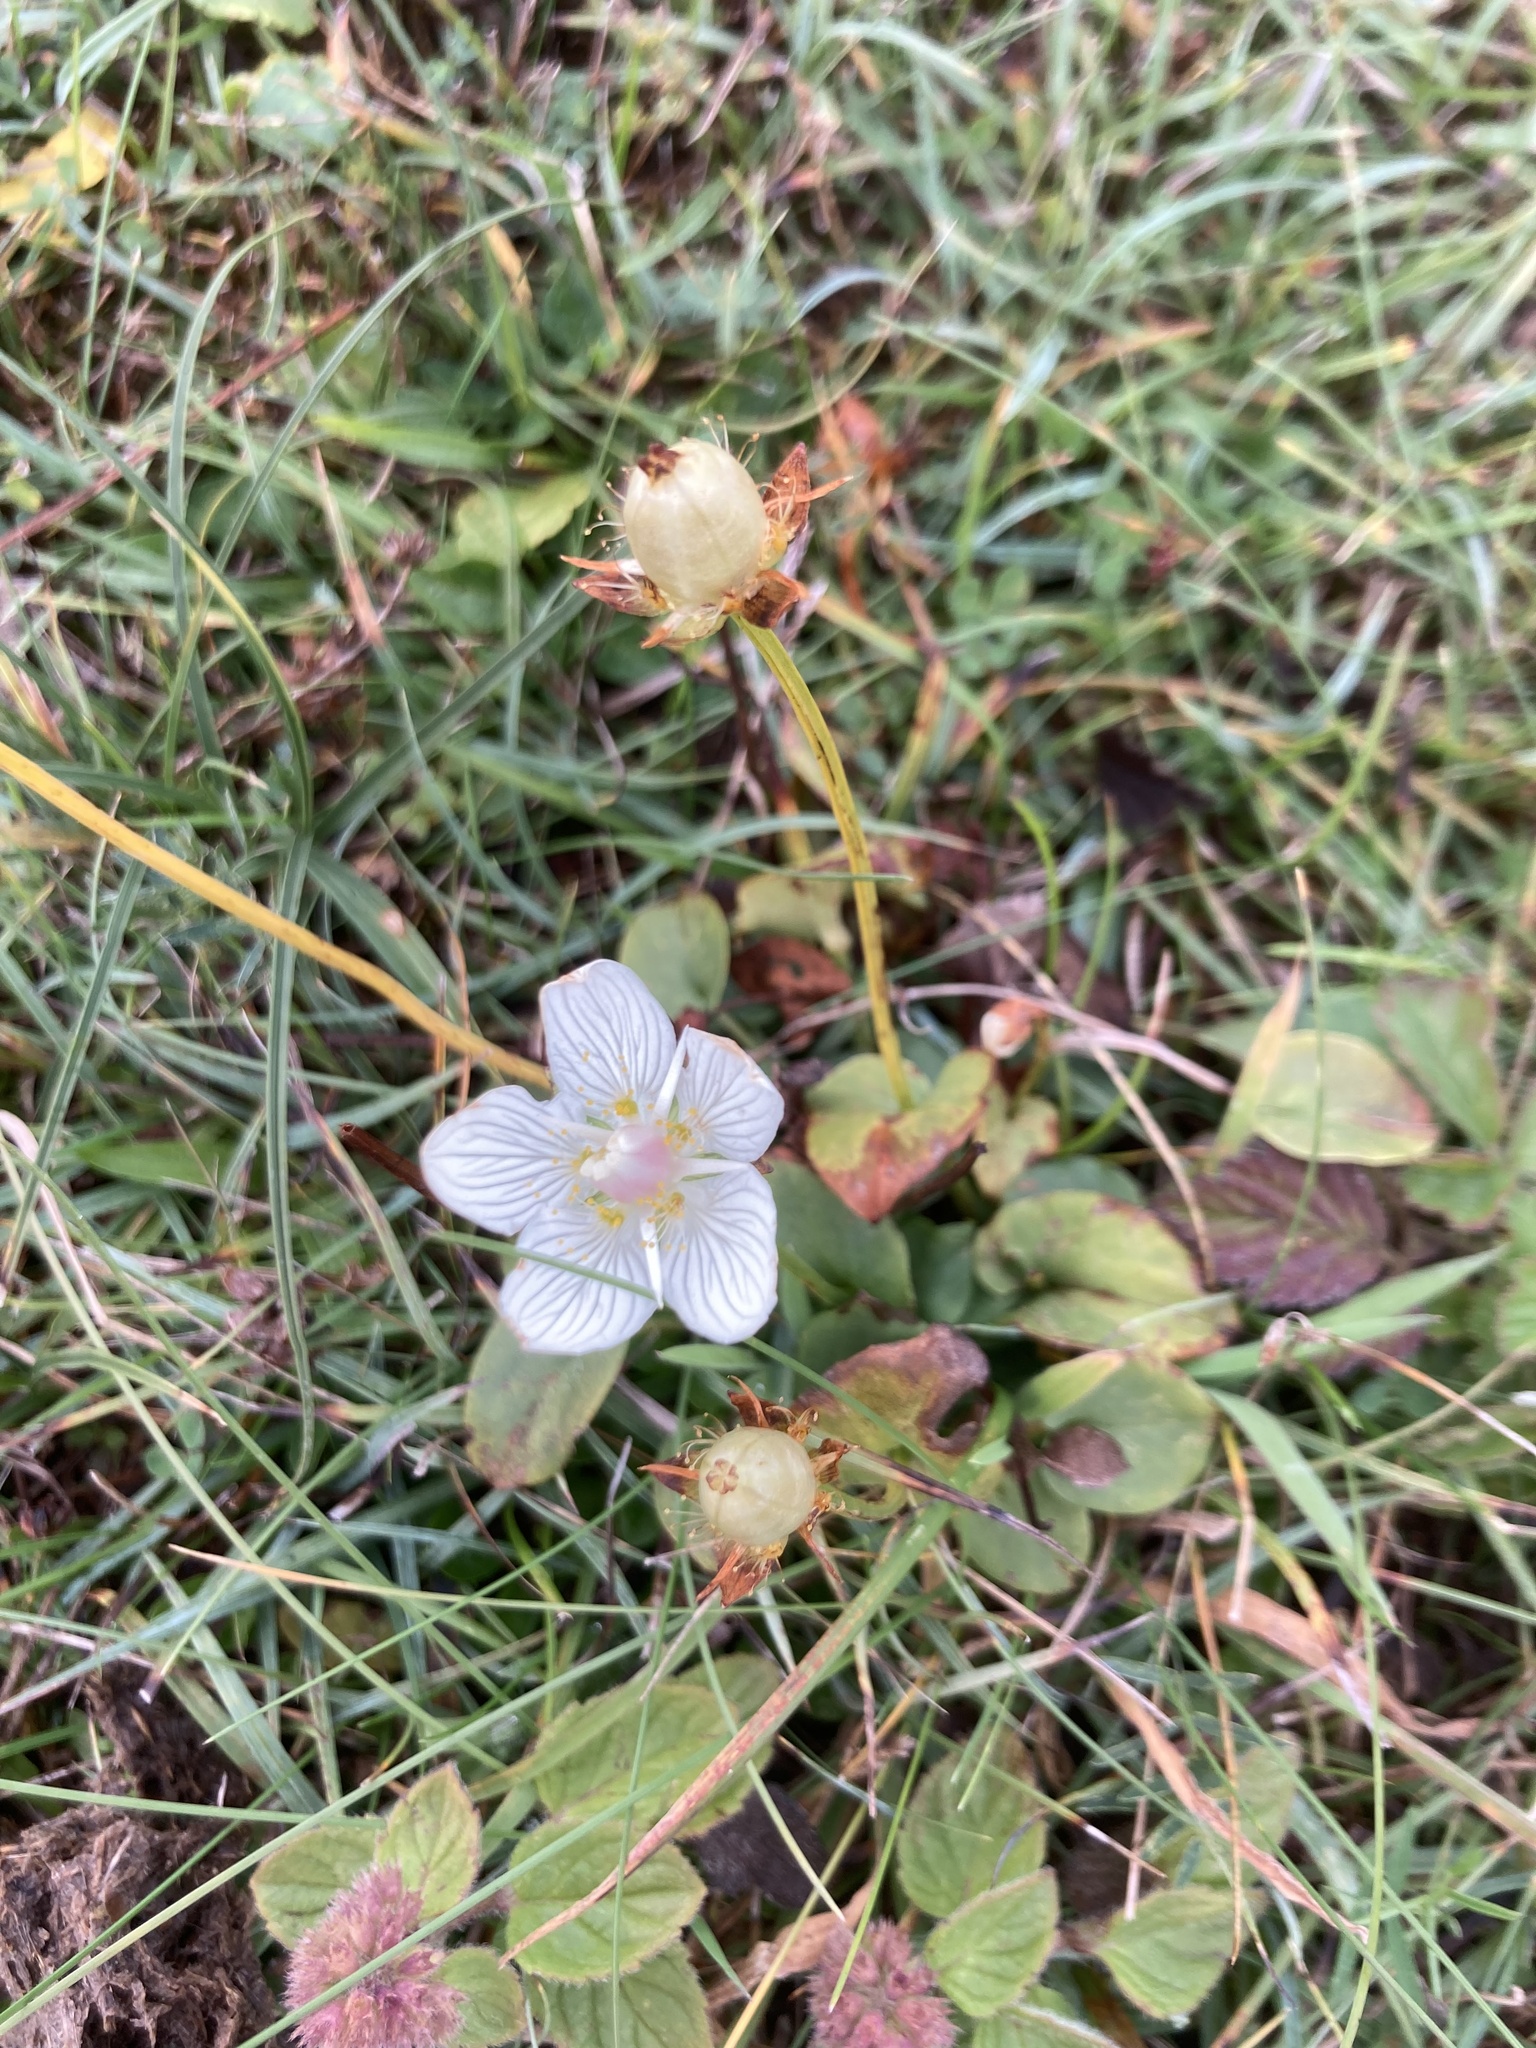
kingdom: Plantae
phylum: Tracheophyta
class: Magnoliopsida
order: Celastrales
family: Parnassiaceae
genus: Parnassia
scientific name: Parnassia palustris
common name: Grass-of-parnassus
